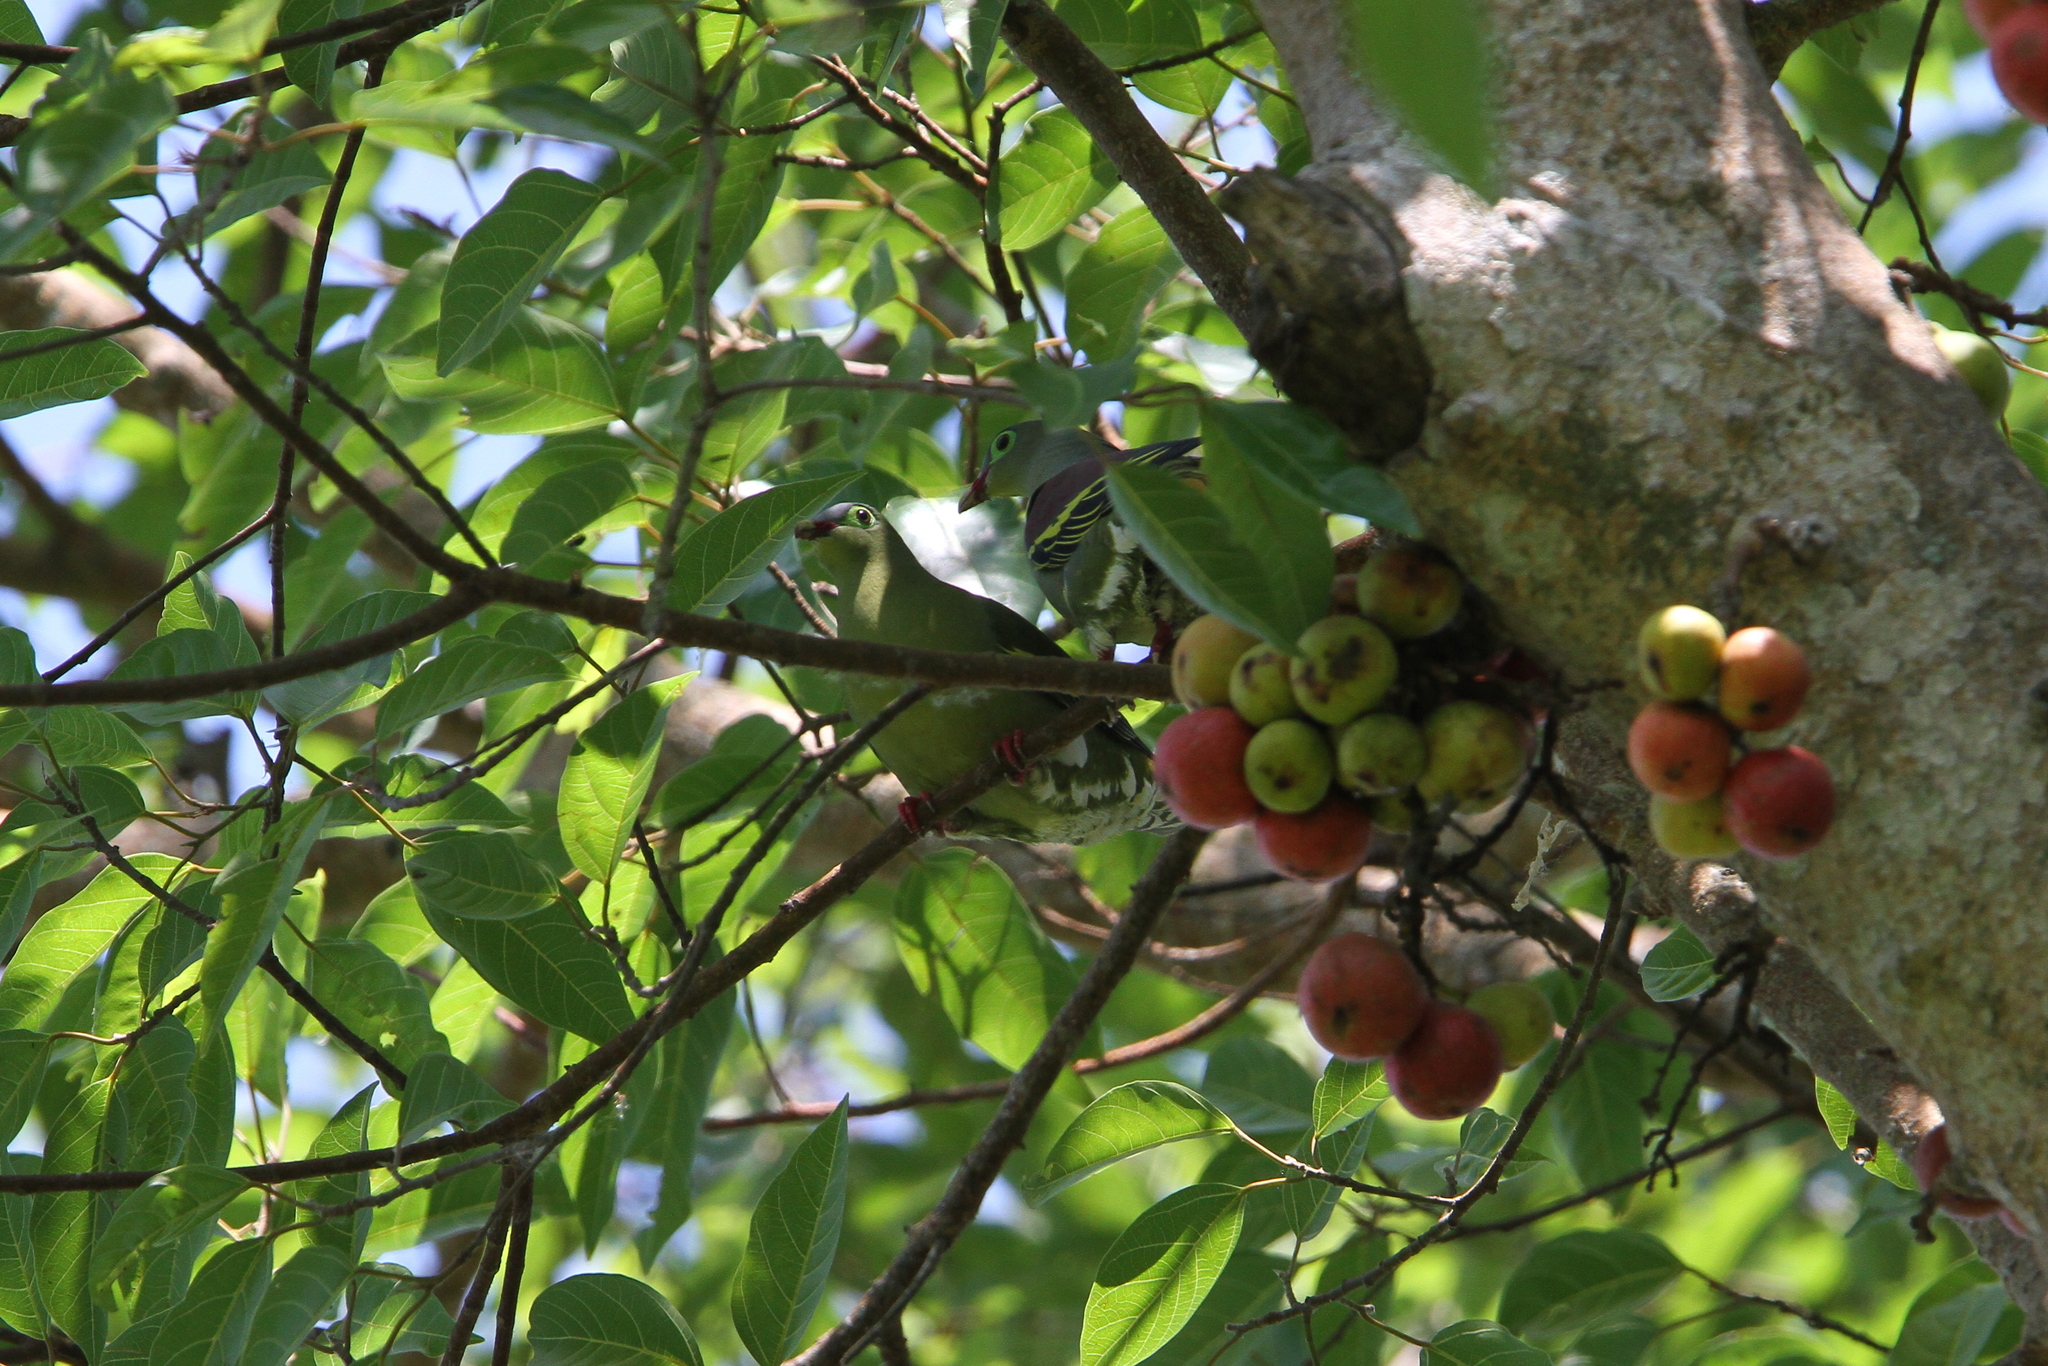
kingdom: Animalia
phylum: Chordata
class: Aves
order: Columbiformes
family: Columbidae
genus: Treron
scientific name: Treron curvirostra
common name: Thick-billed green pigeon
